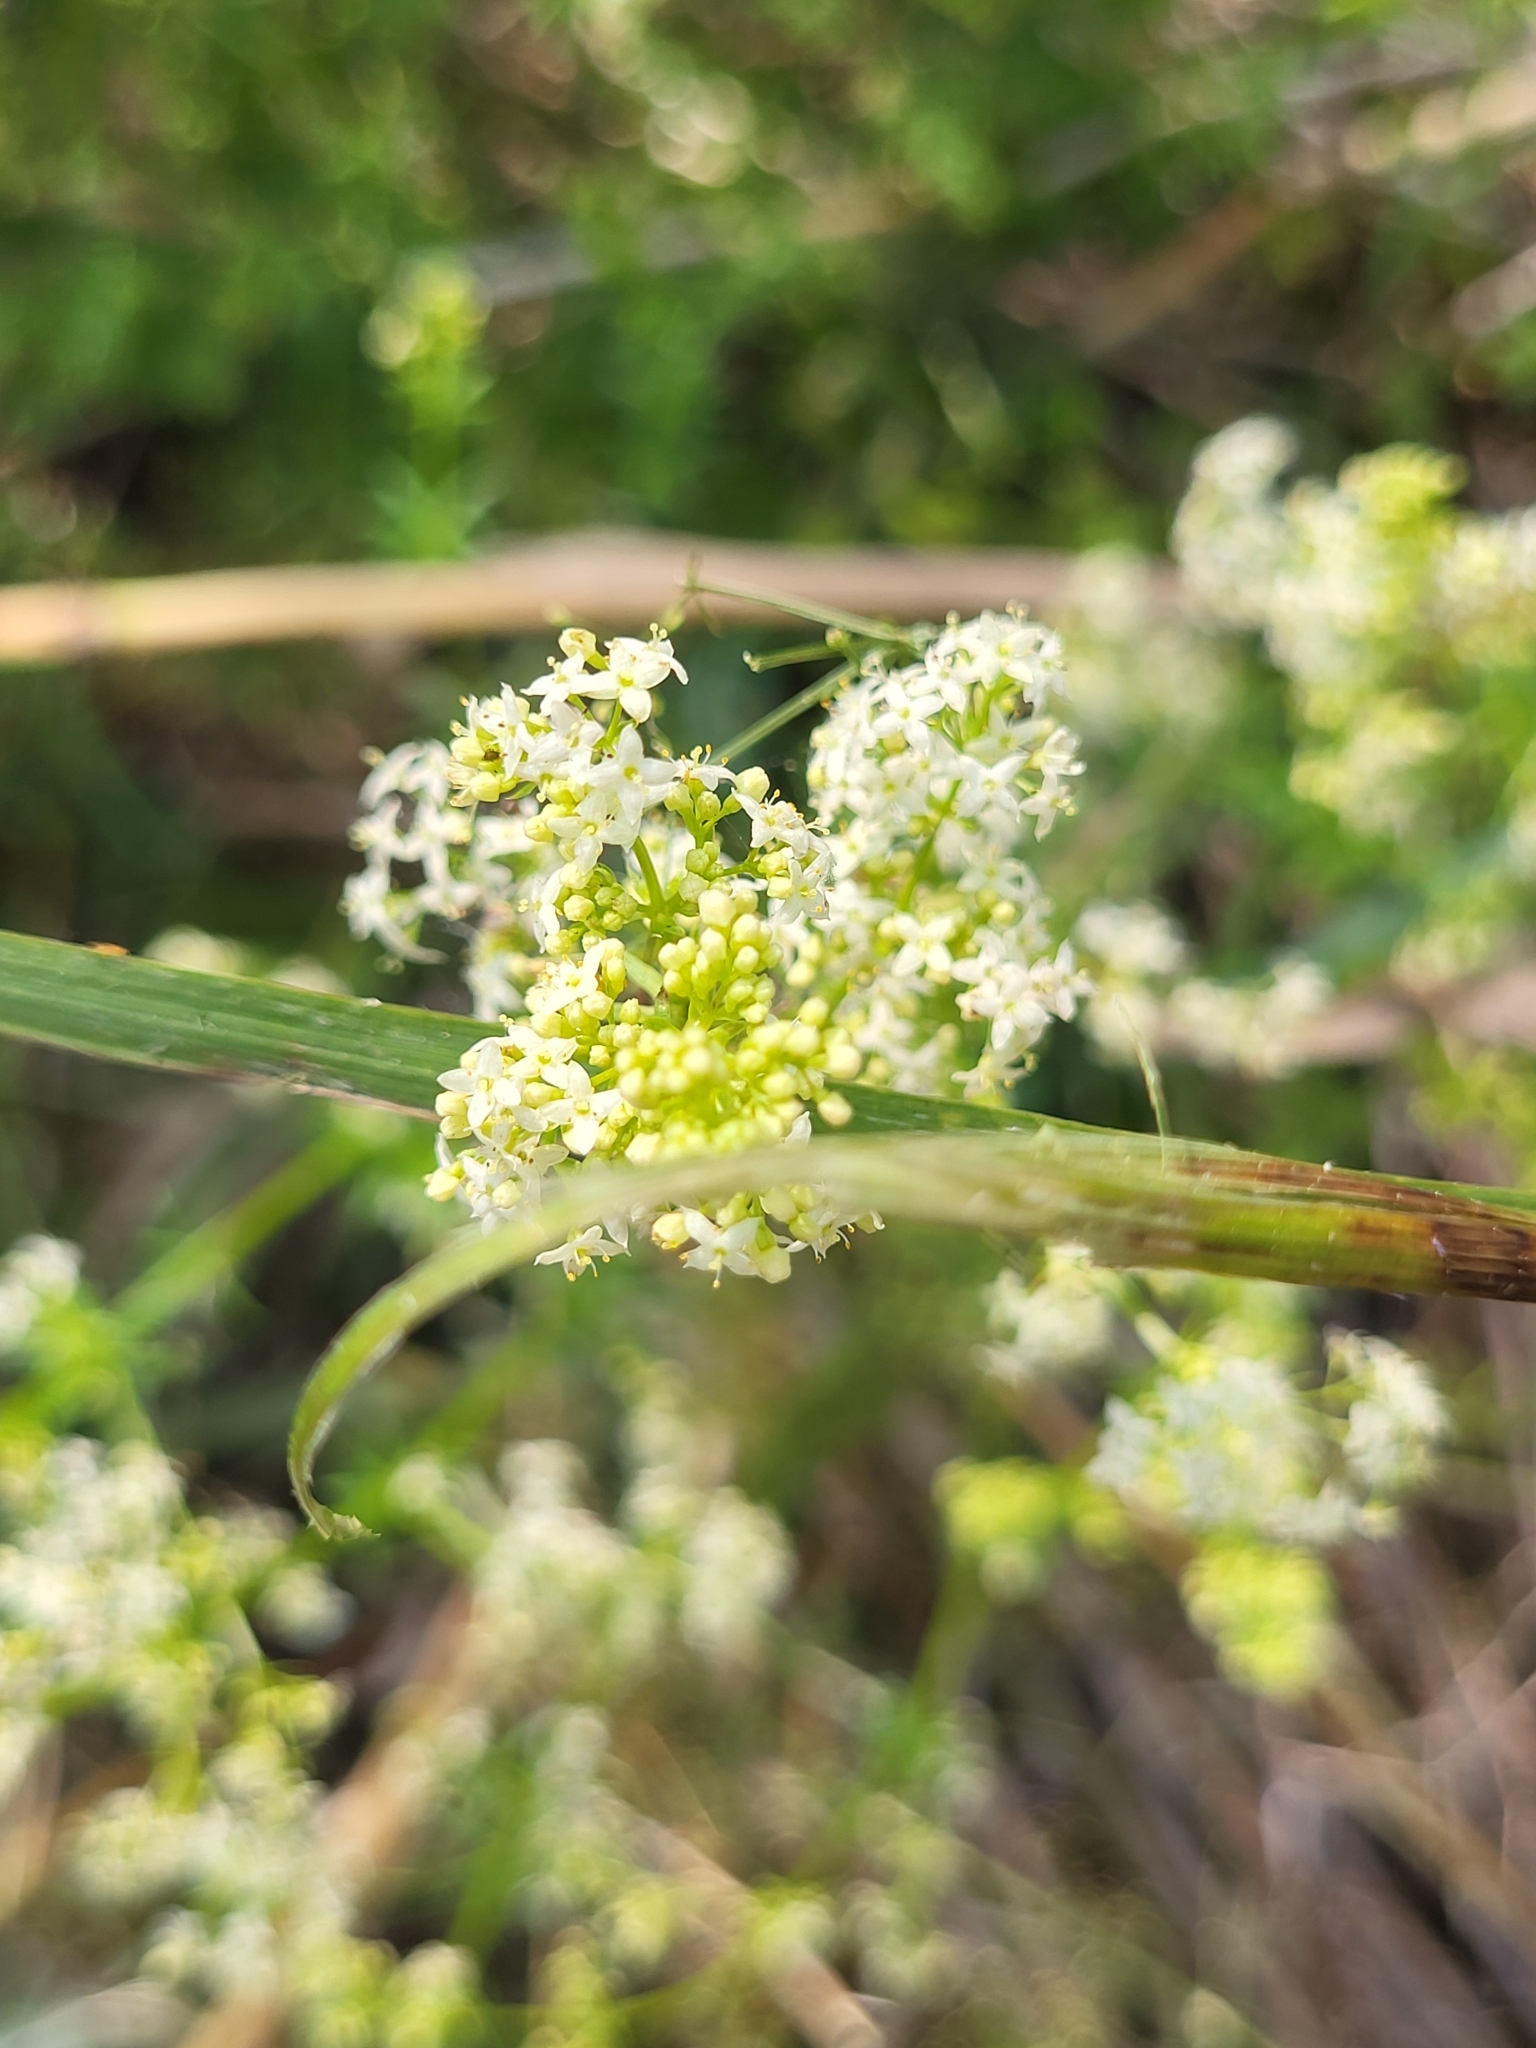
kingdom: Plantae
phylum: Tracheophyta
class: Magnoliopsida
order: Gentianales
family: Rubiaceae
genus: Galium
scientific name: Galium mollugo
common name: Hedge bedstraw
